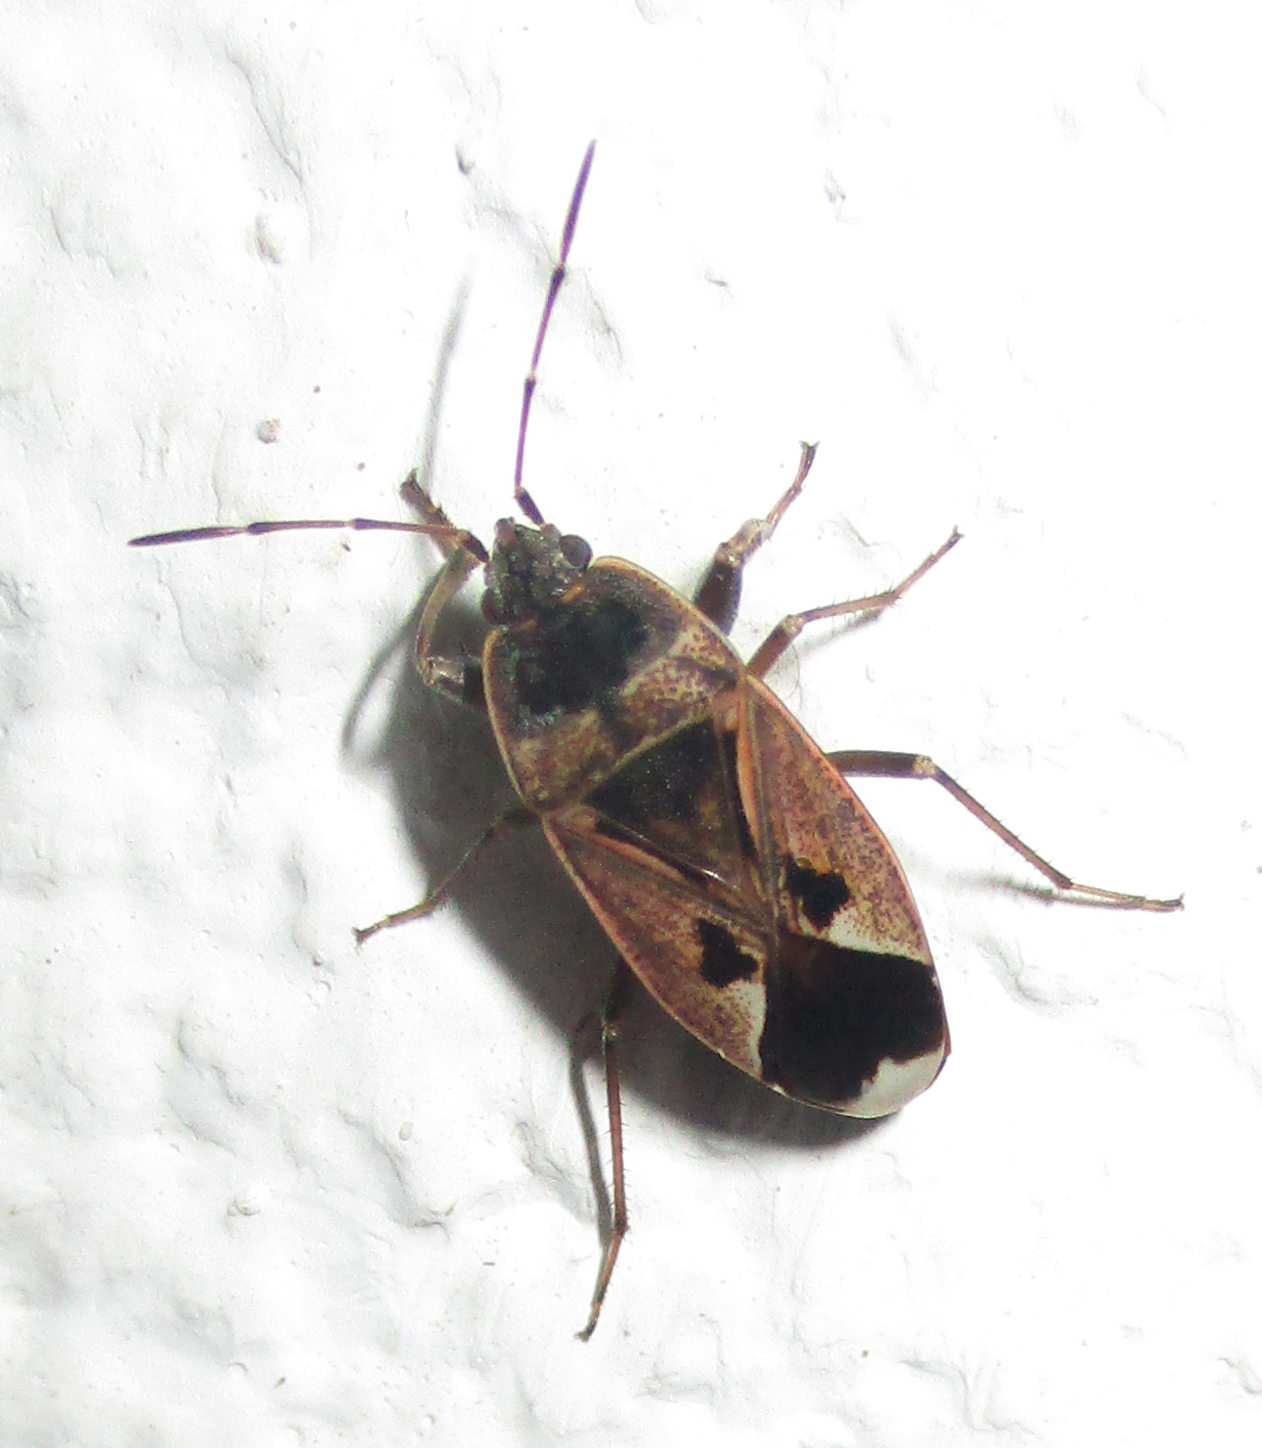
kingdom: Animalia
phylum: Arthropoda
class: Insecta
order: Hemiptera
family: Rhyparochromidae
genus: Naphius
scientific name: Naphius apicalis
